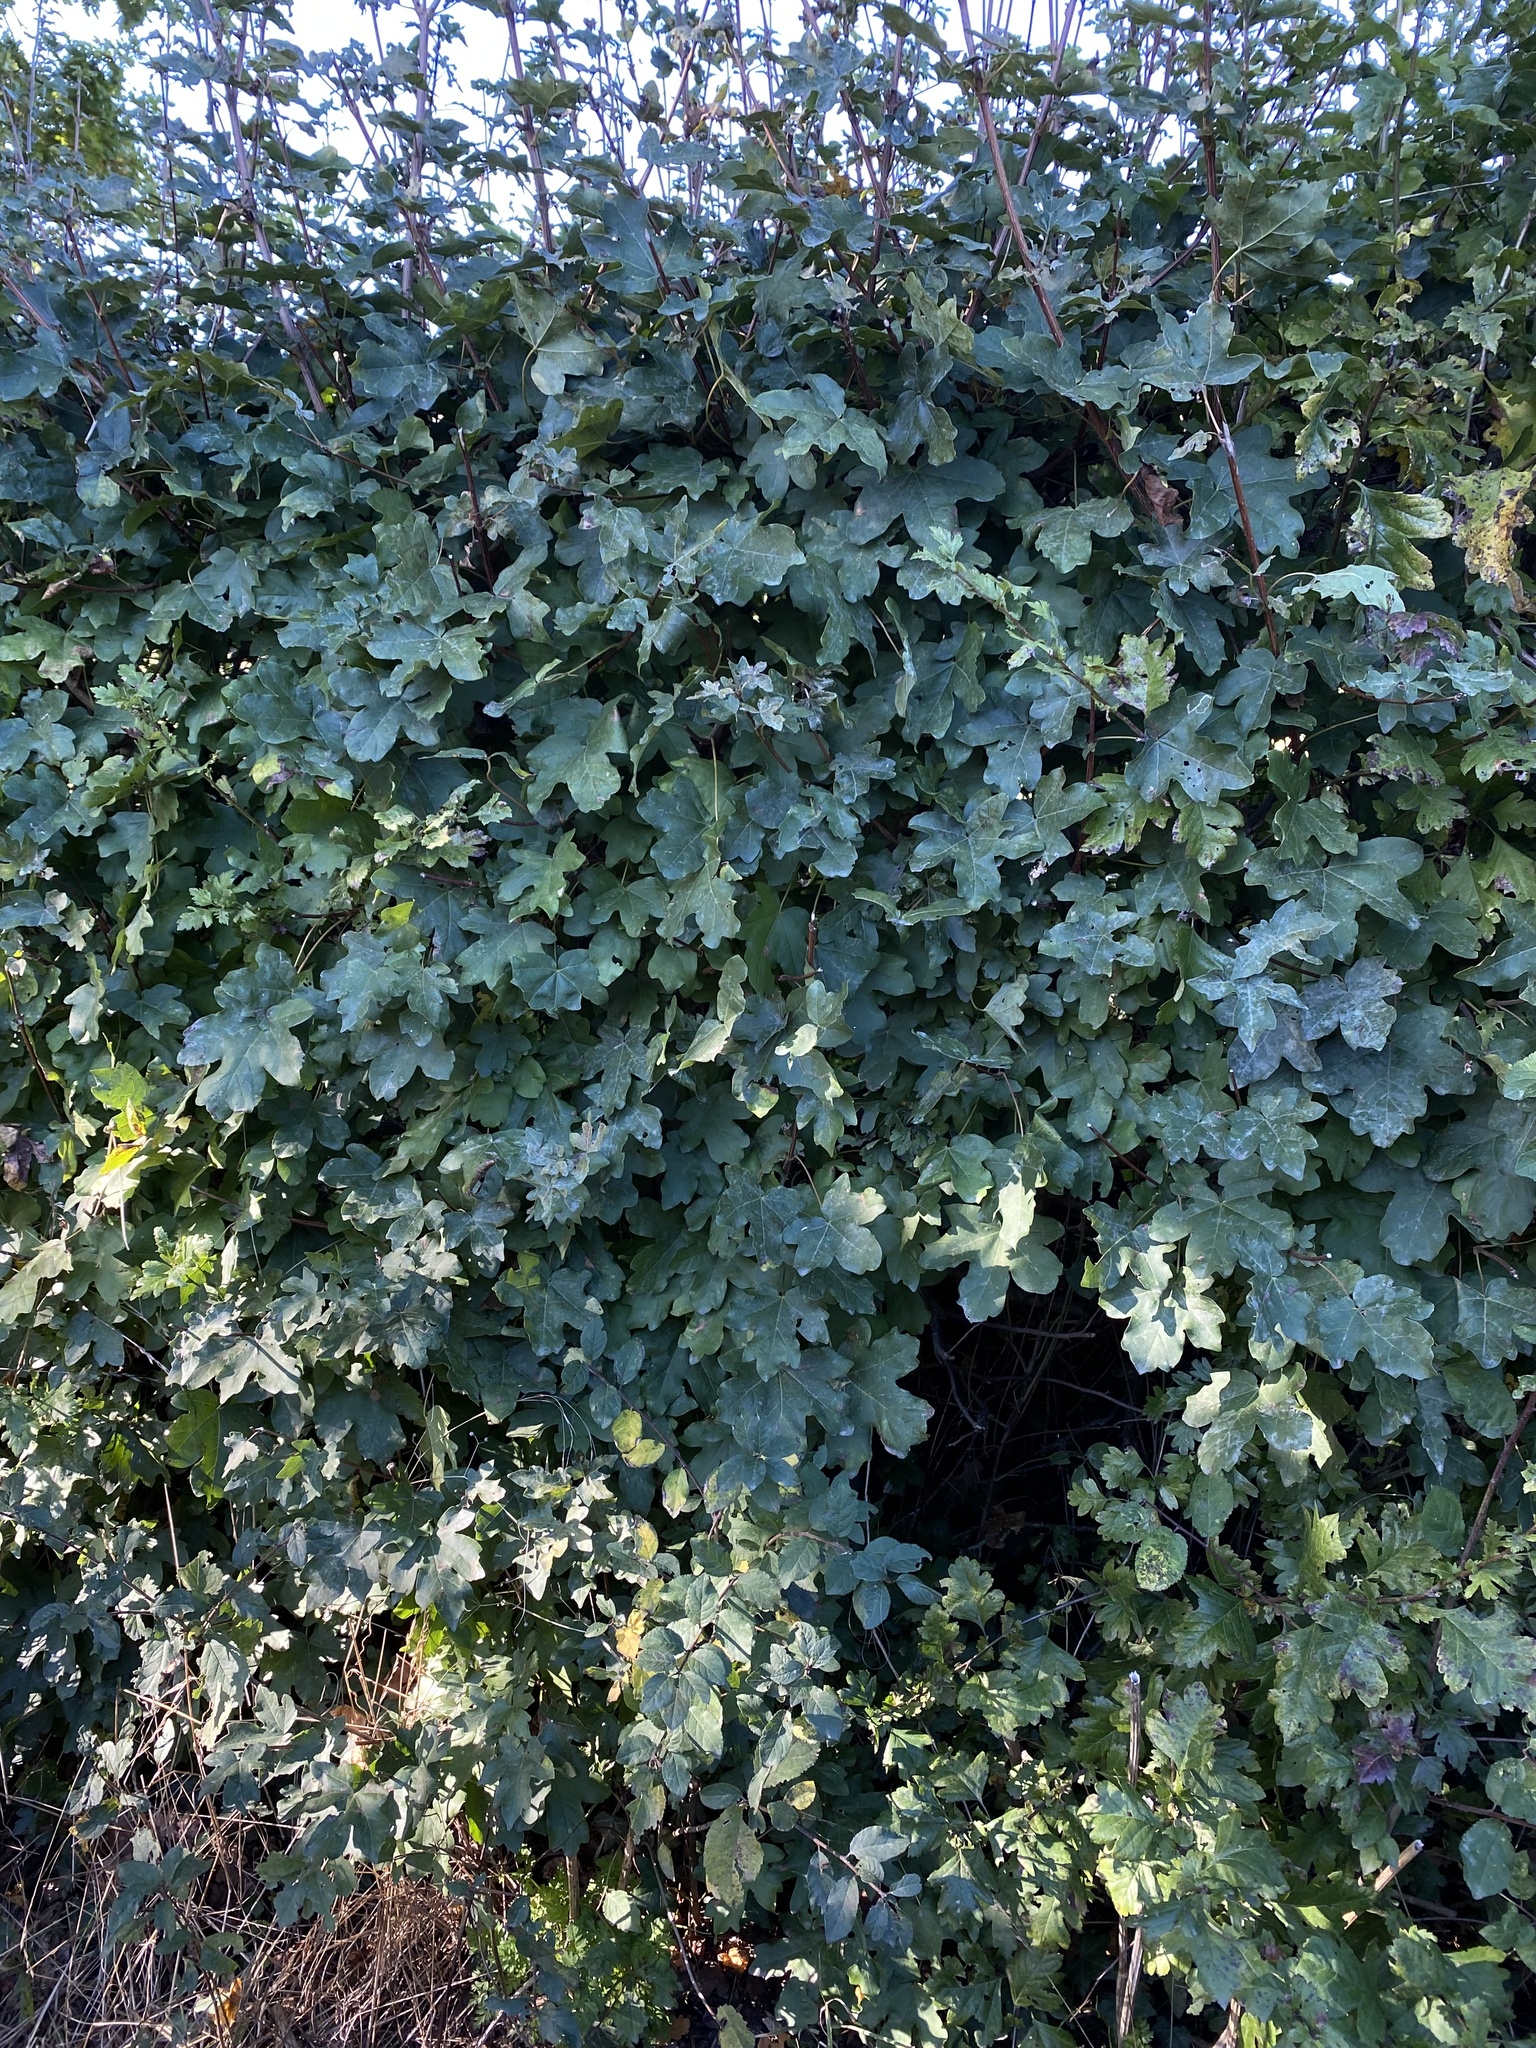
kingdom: Plantae
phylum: Tracheophyta
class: Magnoliopsida
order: Sapindales
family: Sapindaceae
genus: Acer
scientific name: Acer campestre
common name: Field maple
